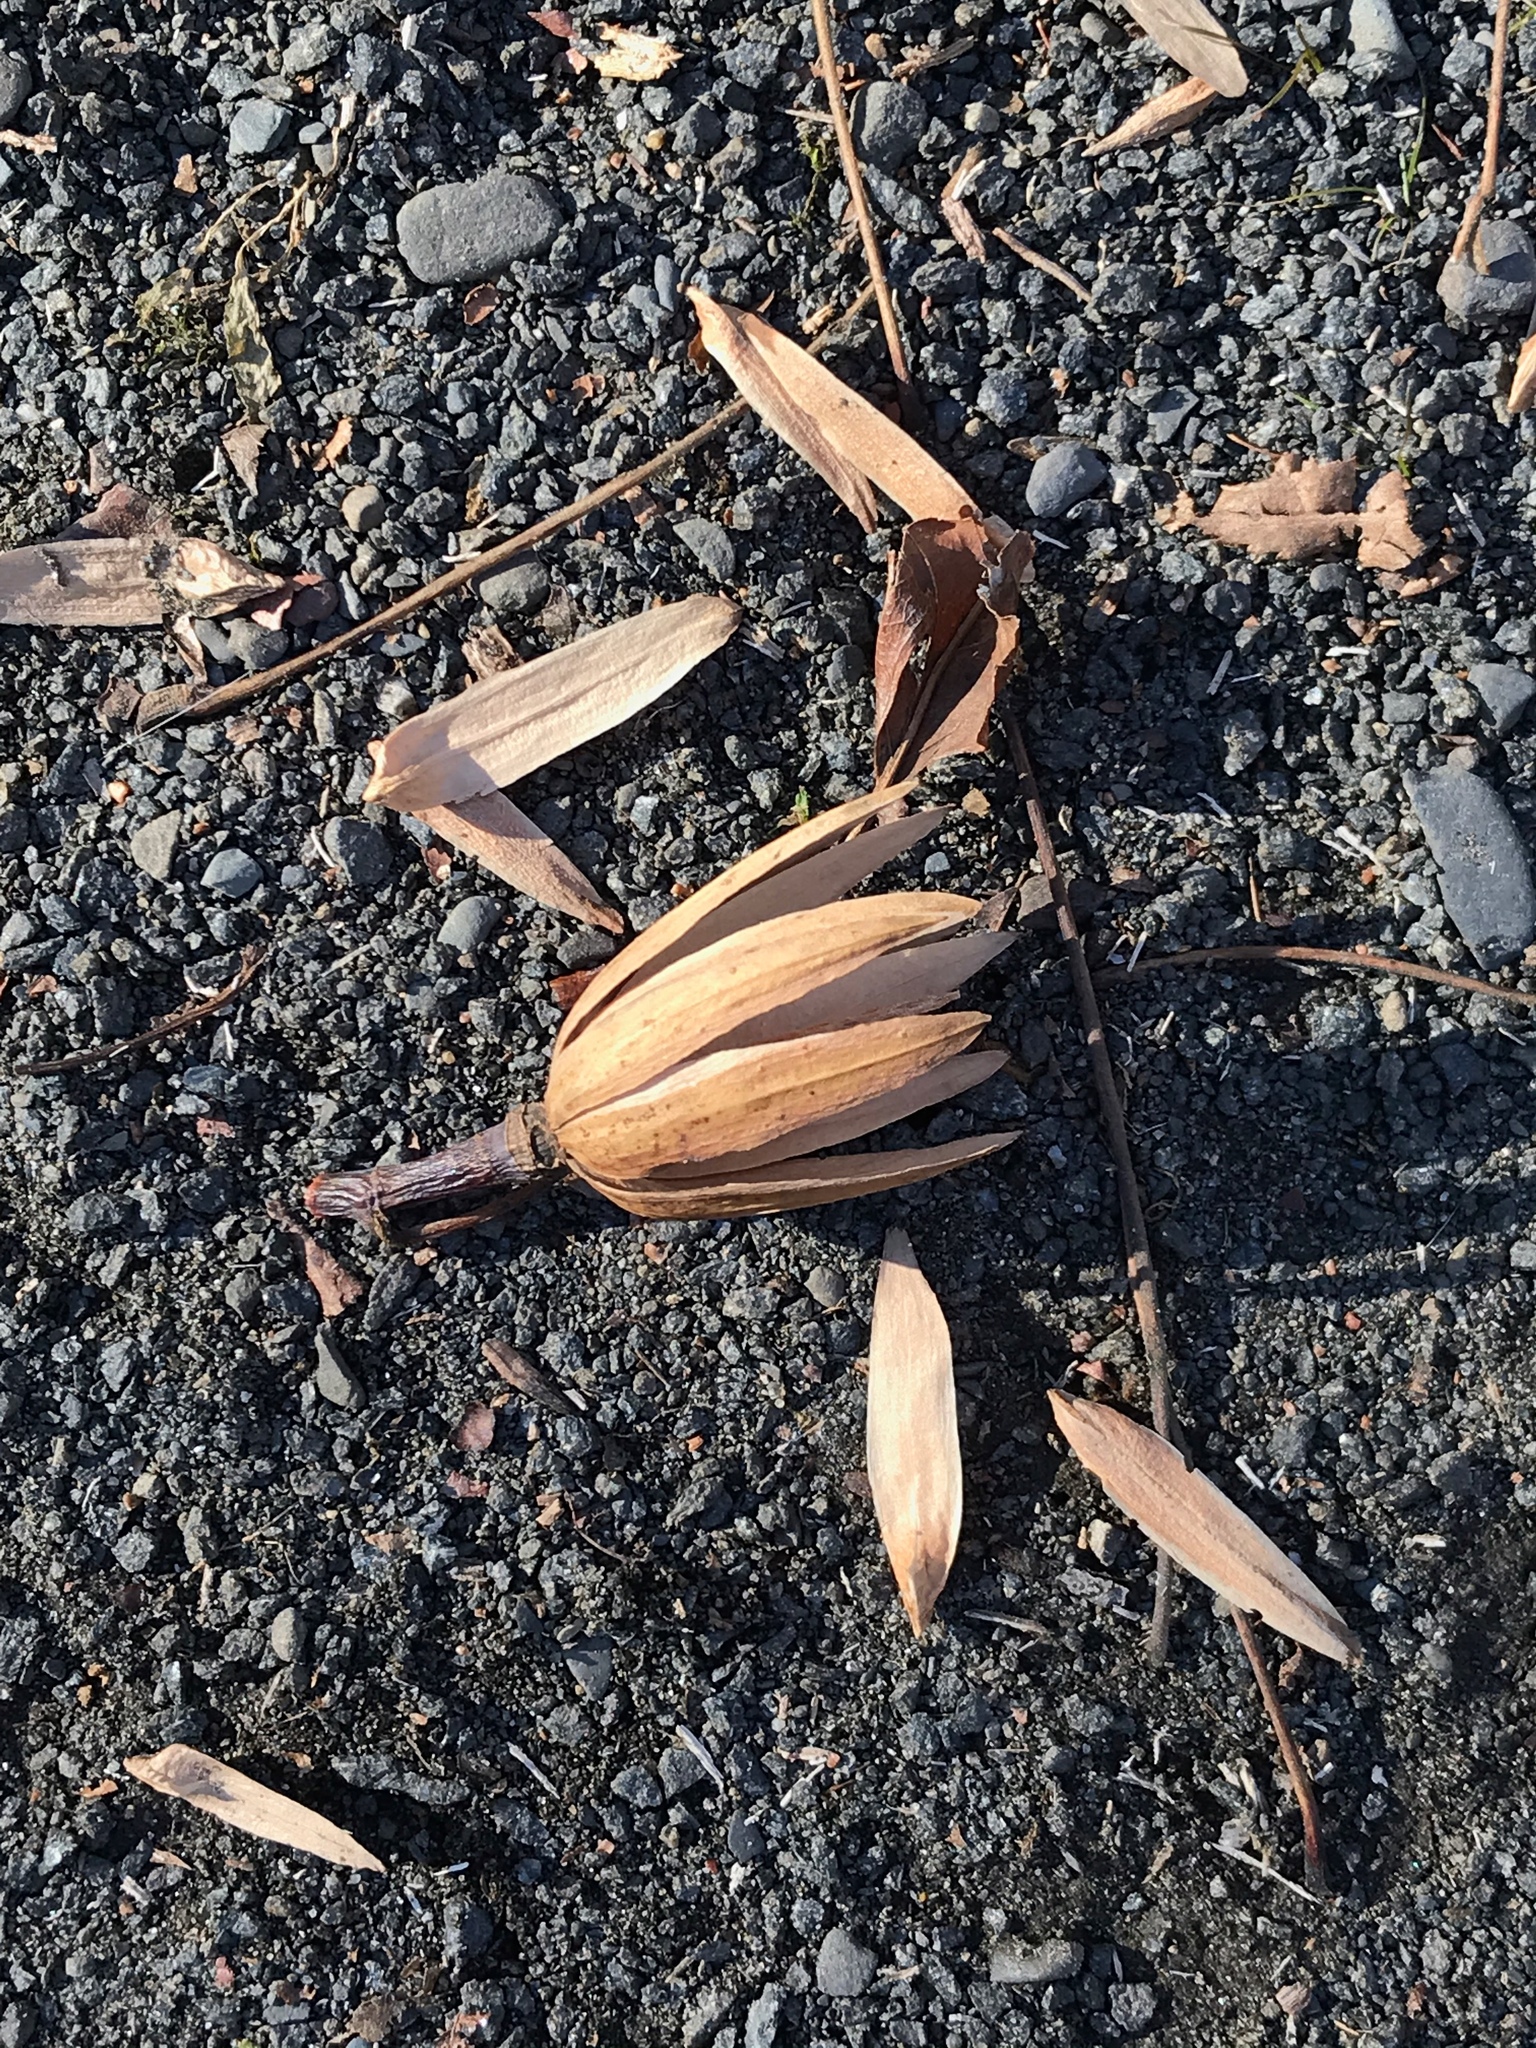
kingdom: Plantae
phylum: Tracheophyta
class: Magnoliopsida
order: Magnoliales
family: Magnoliaceae
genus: Liriodendron
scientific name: Liriodendron tulipifera
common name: Tulip tree
